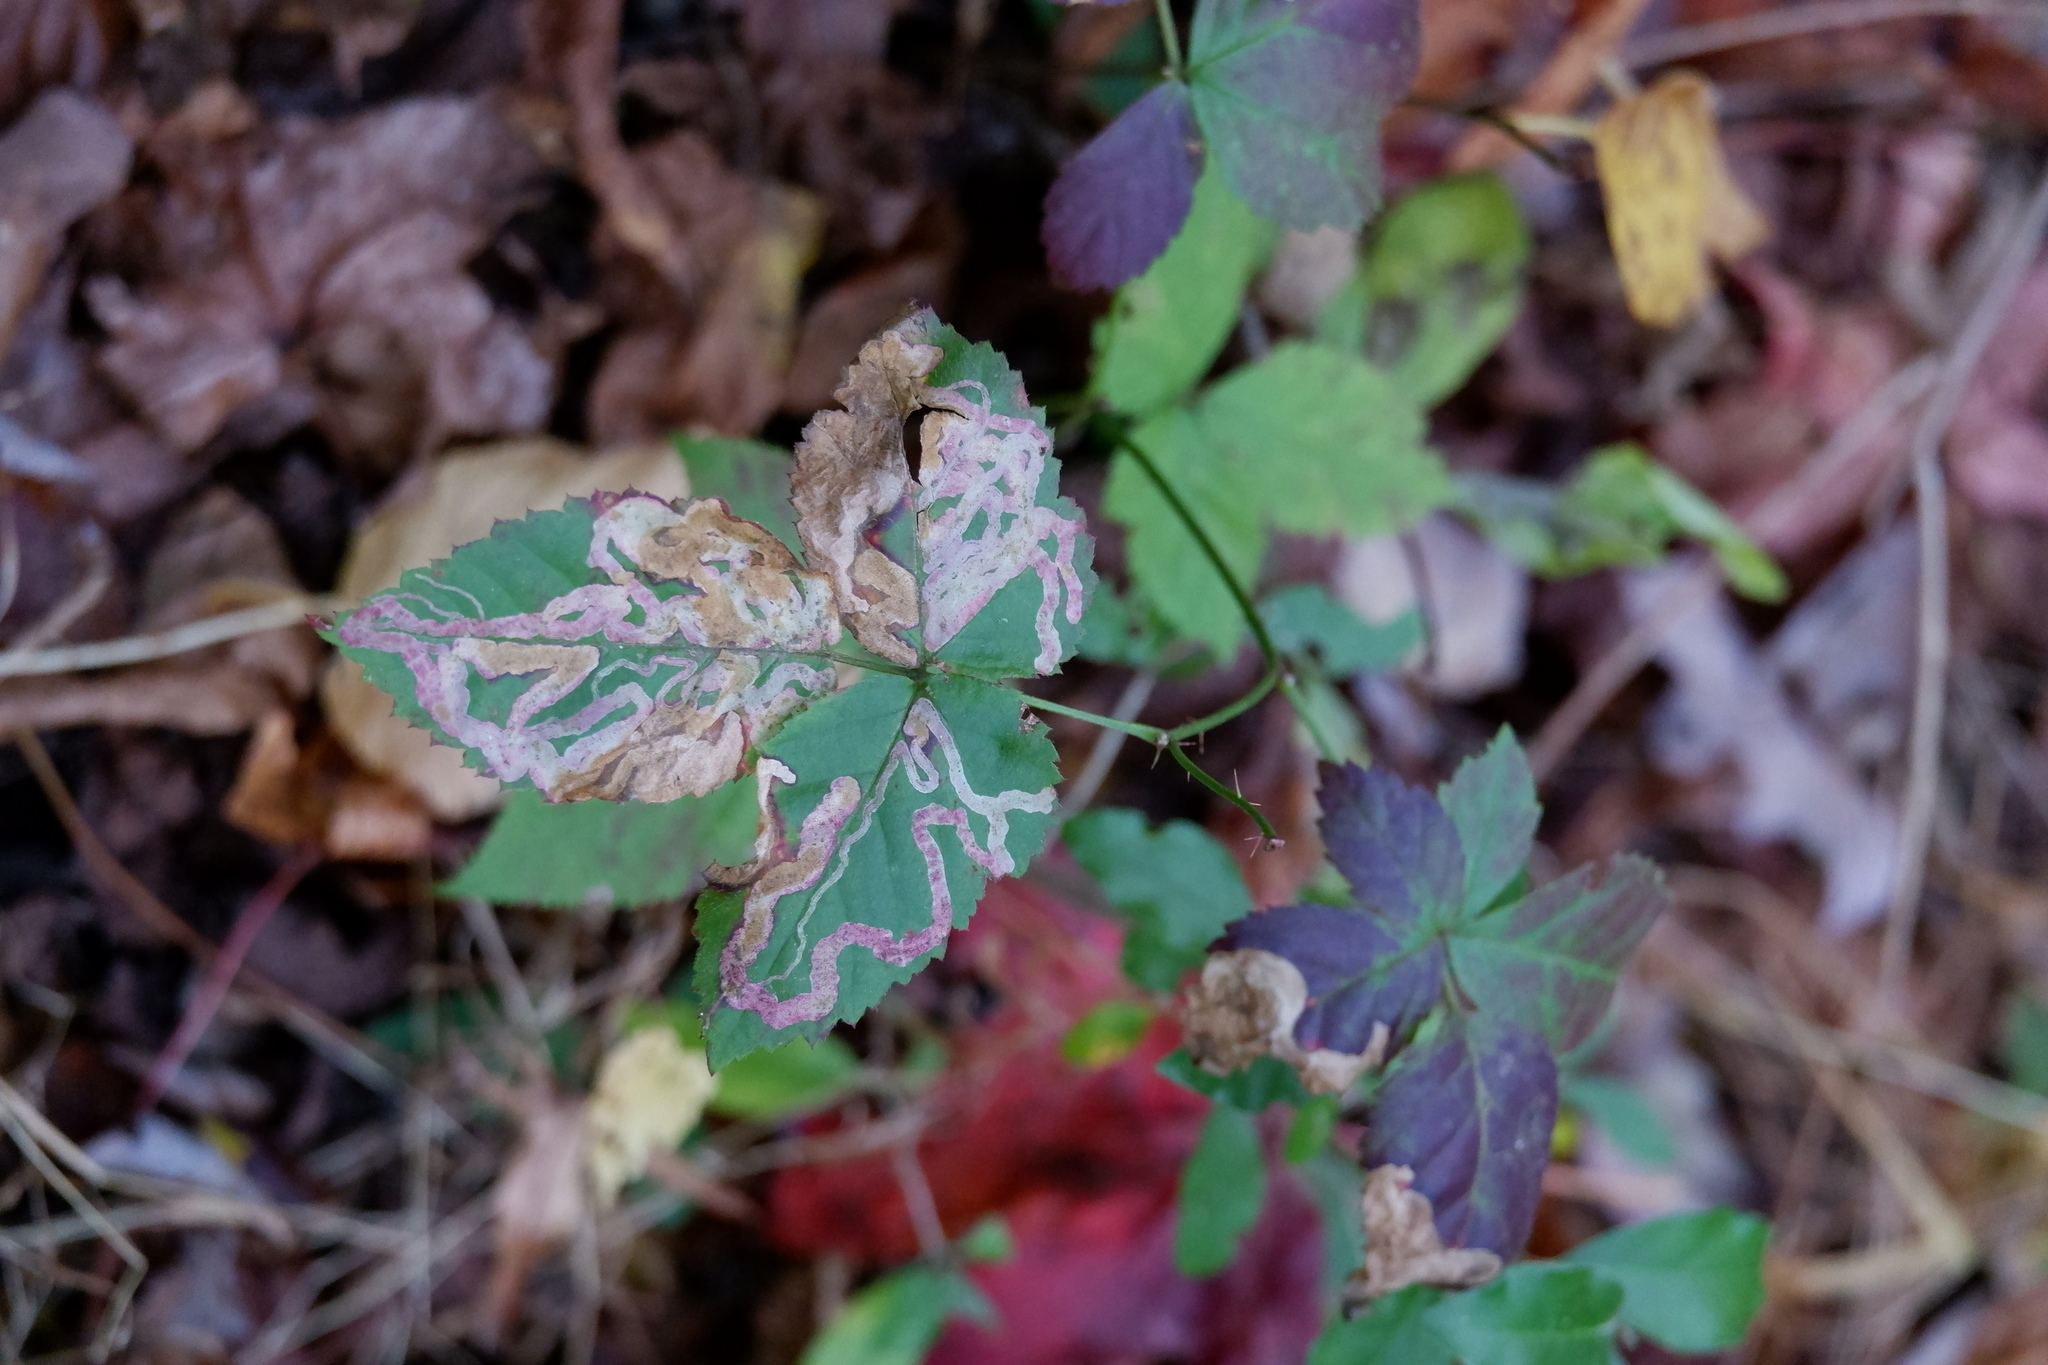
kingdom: Animalia
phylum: Arthropoda
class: Insecta
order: Diptera
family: Agromyzidae
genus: Agromyza
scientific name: Agromyza vockerothi
